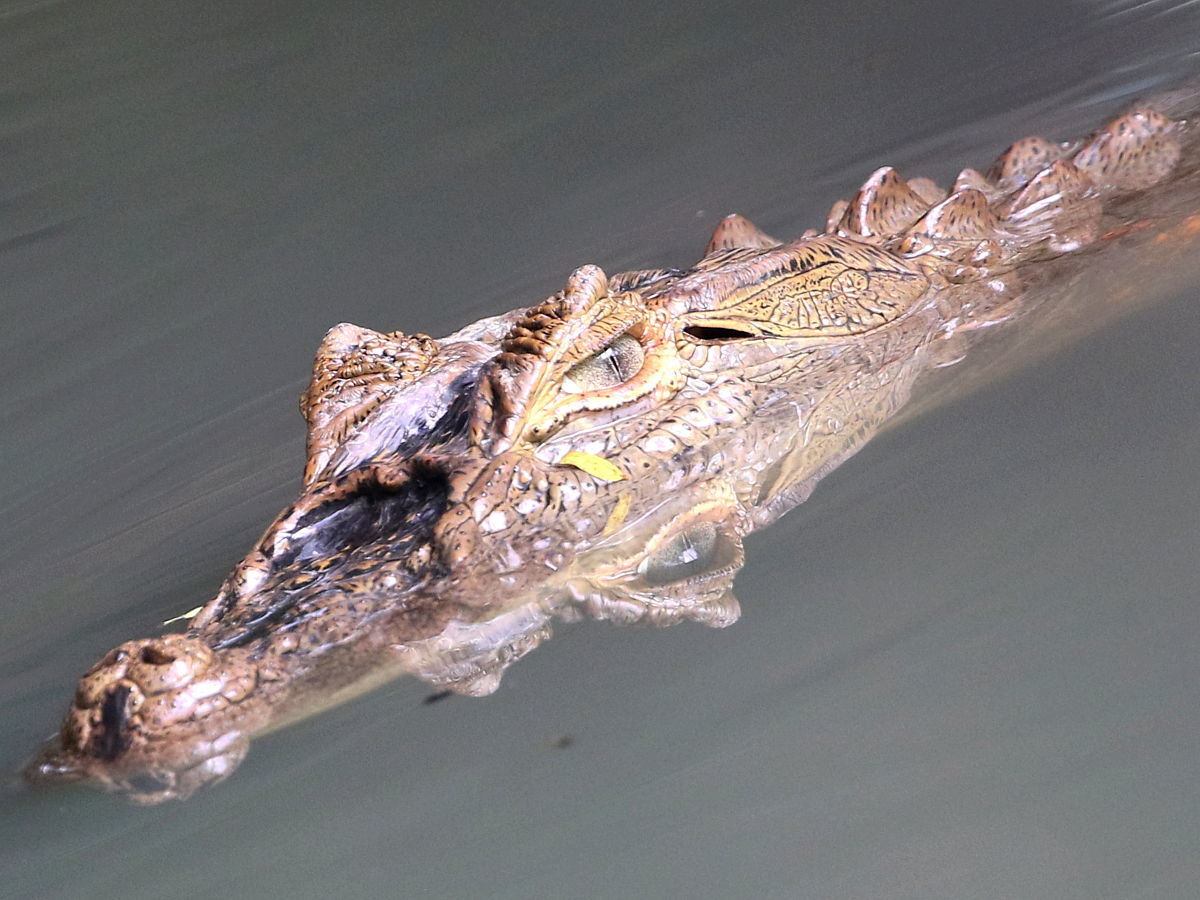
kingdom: Animalia
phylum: Chordata
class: Crocodylia
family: Alligatoridae
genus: Caiman
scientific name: Caiman latirostris
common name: Broad-snouted caiman
